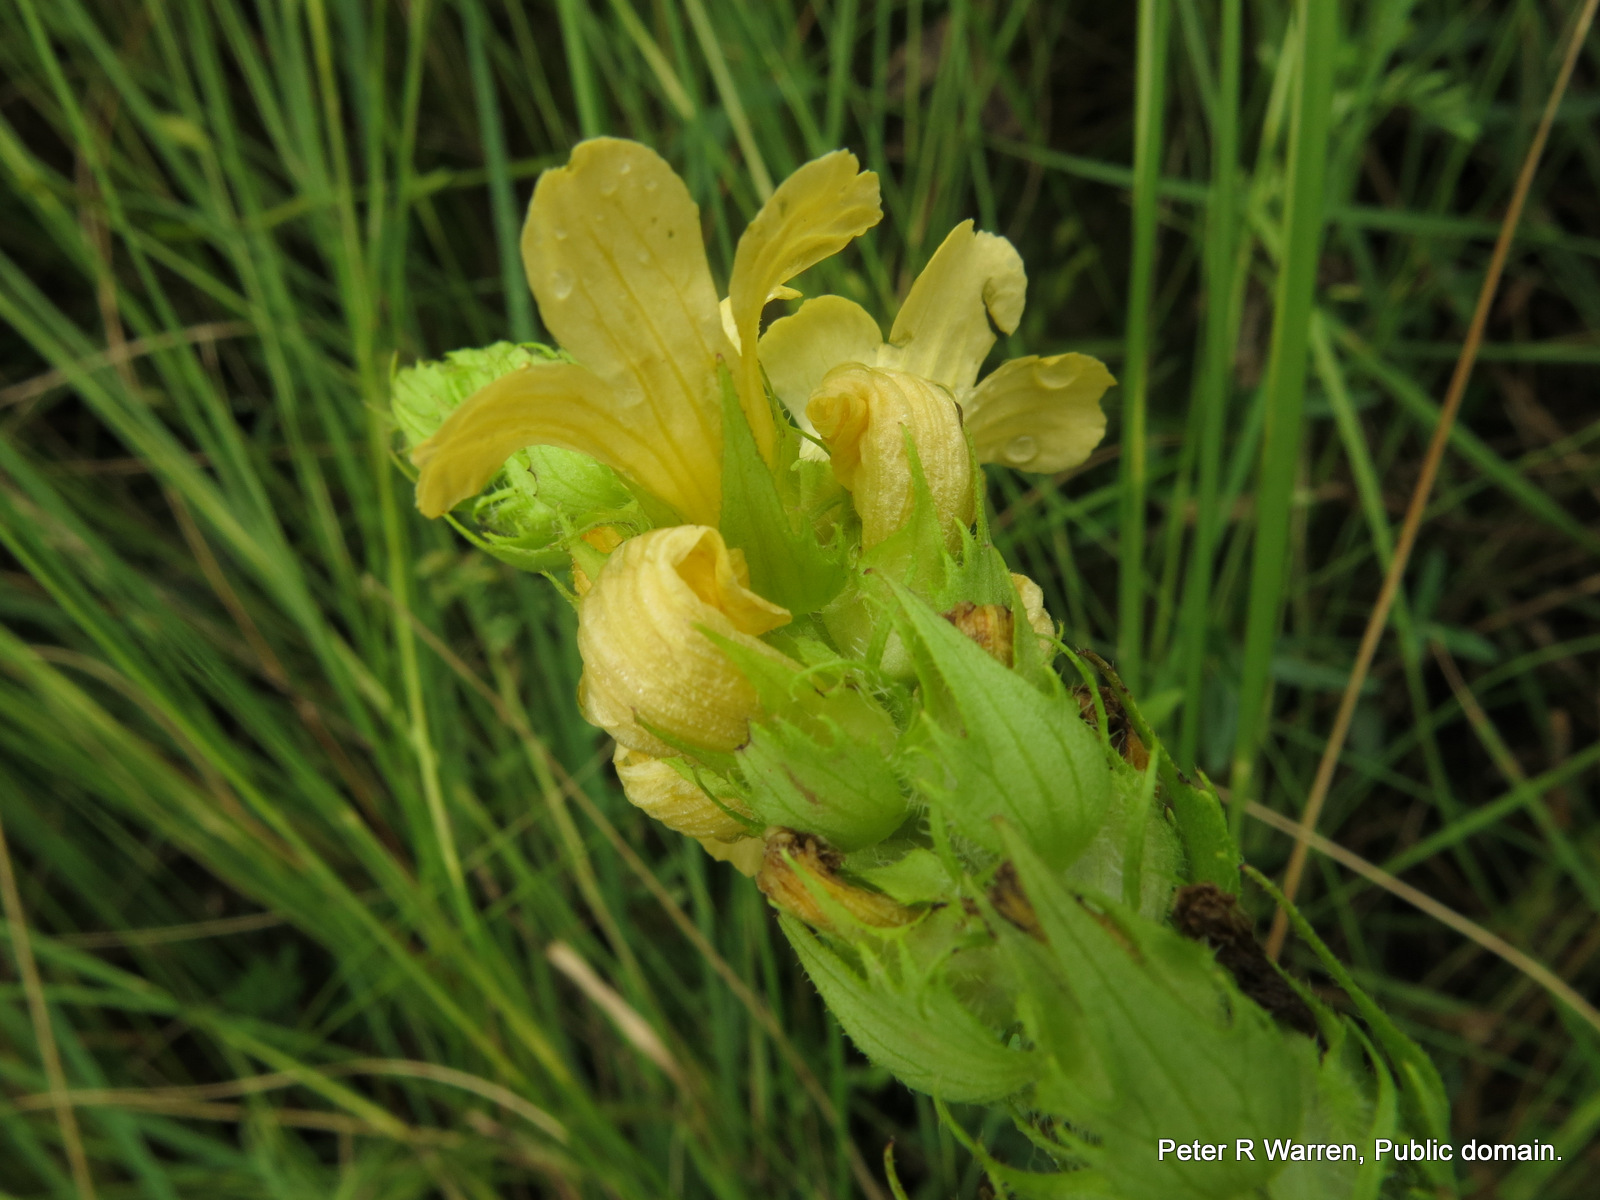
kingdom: Plantae
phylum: Tracheophyta
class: Magnoliopsida
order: Lamiales
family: Orobanchaceae
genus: Alectra
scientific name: Alectra sessiliflora
